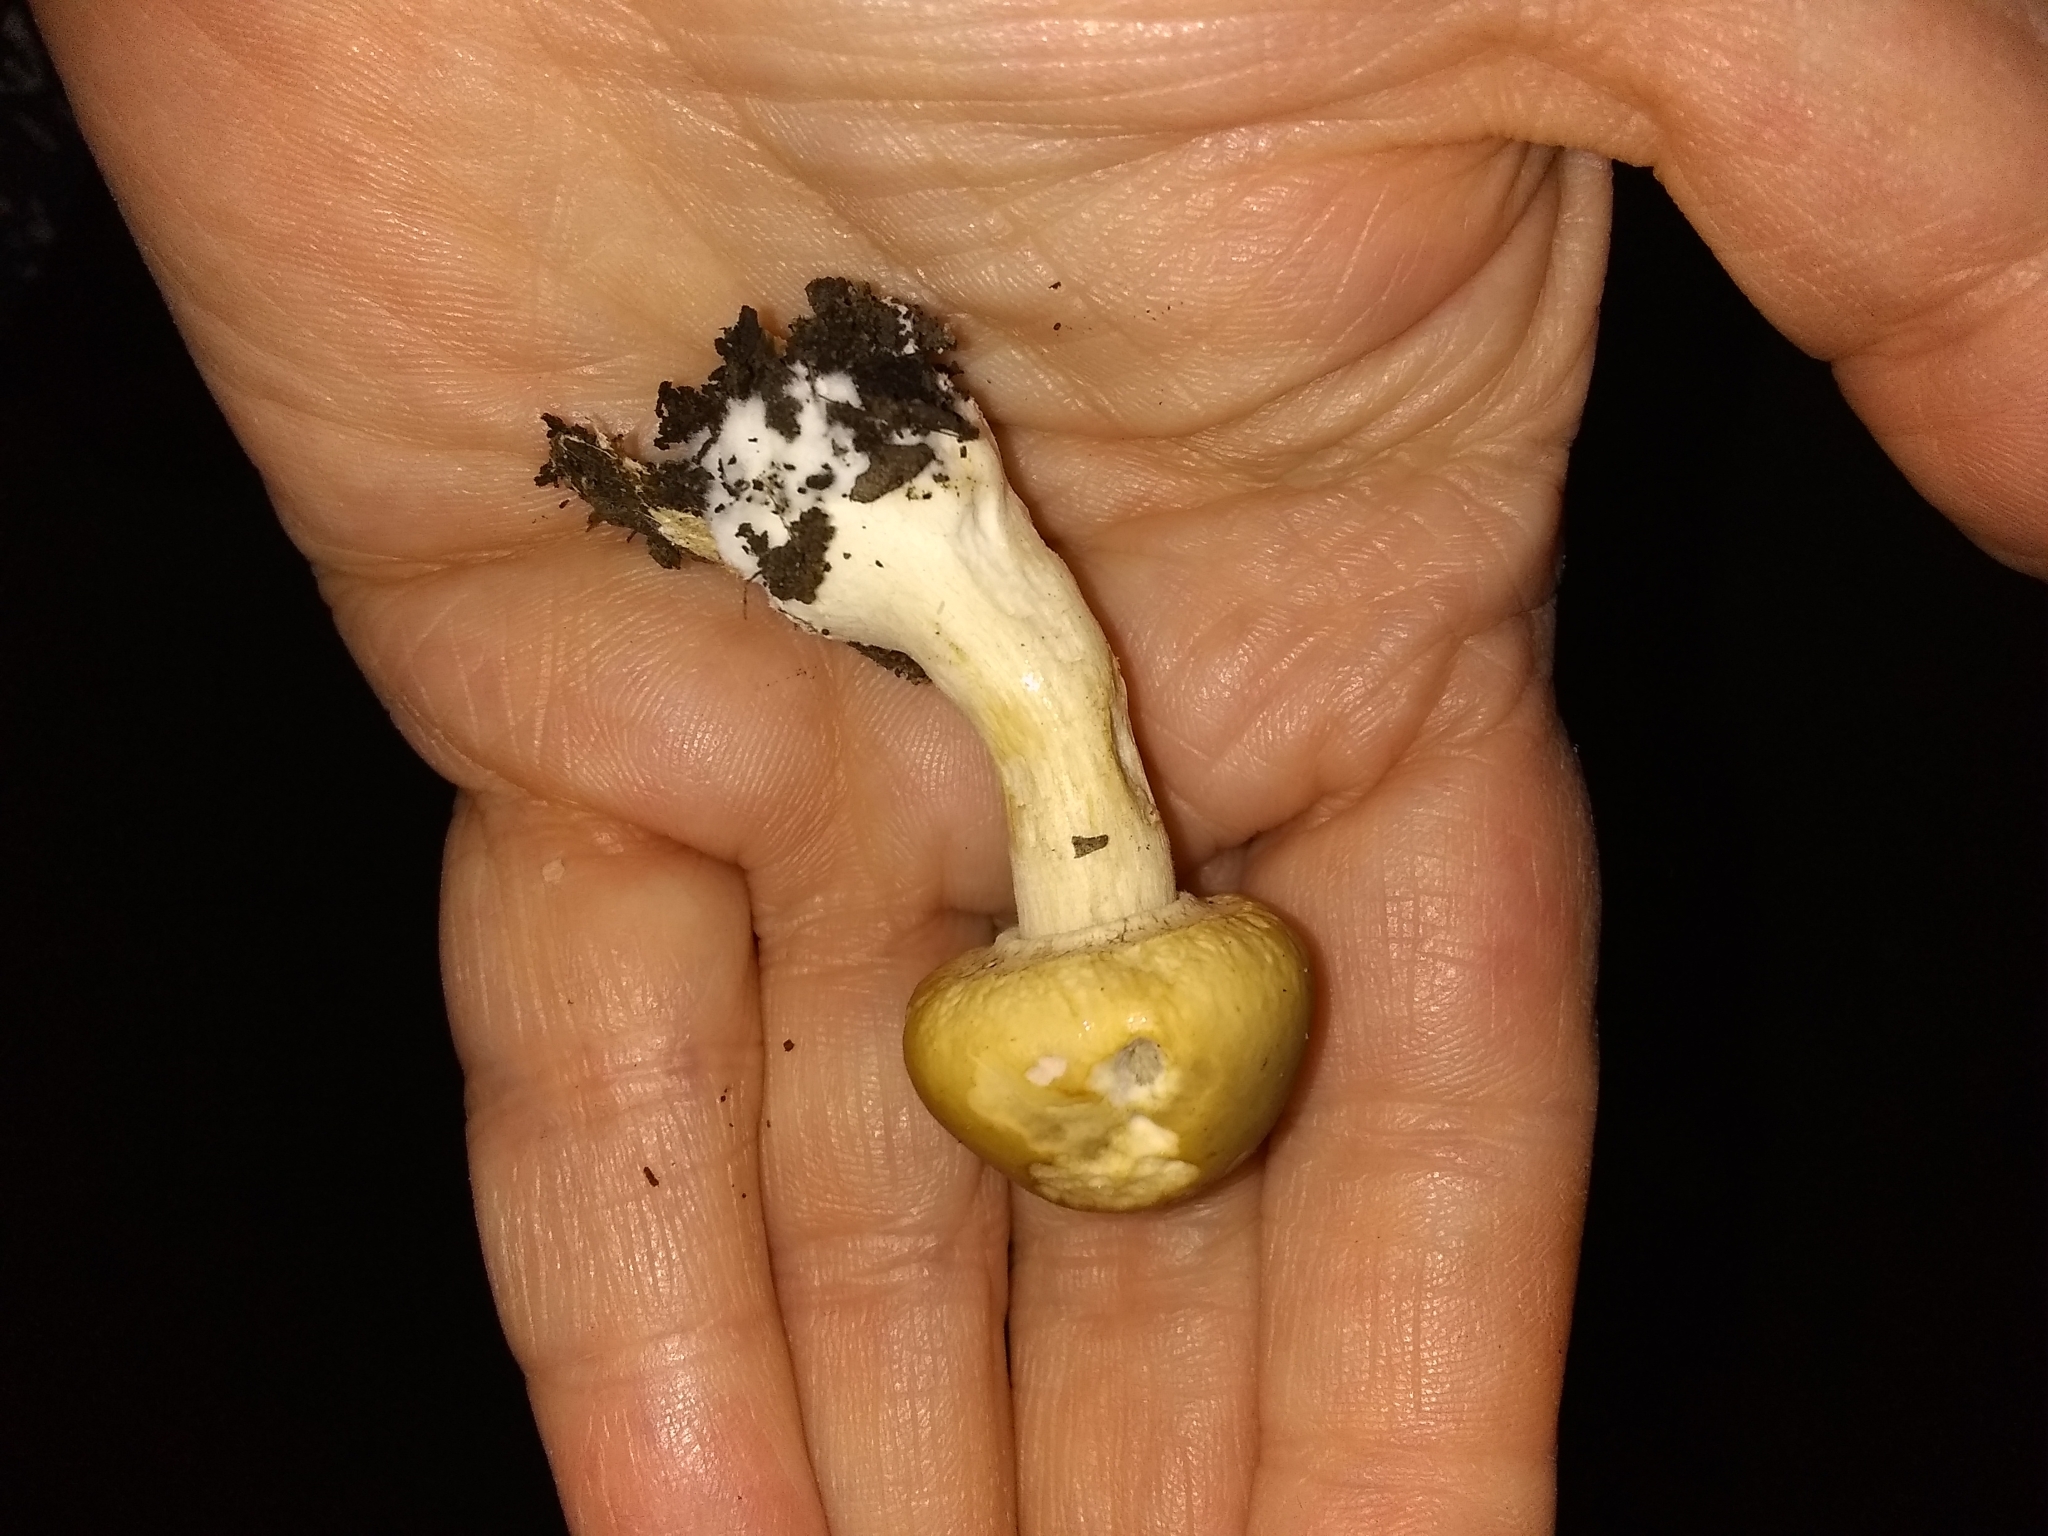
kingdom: Fungi
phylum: Basidiomycota
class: Agaricomycetes
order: Agaricales
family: Strophariaceae
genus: Agrocybe
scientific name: Agrocybe praecox
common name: Spring fieldcap
